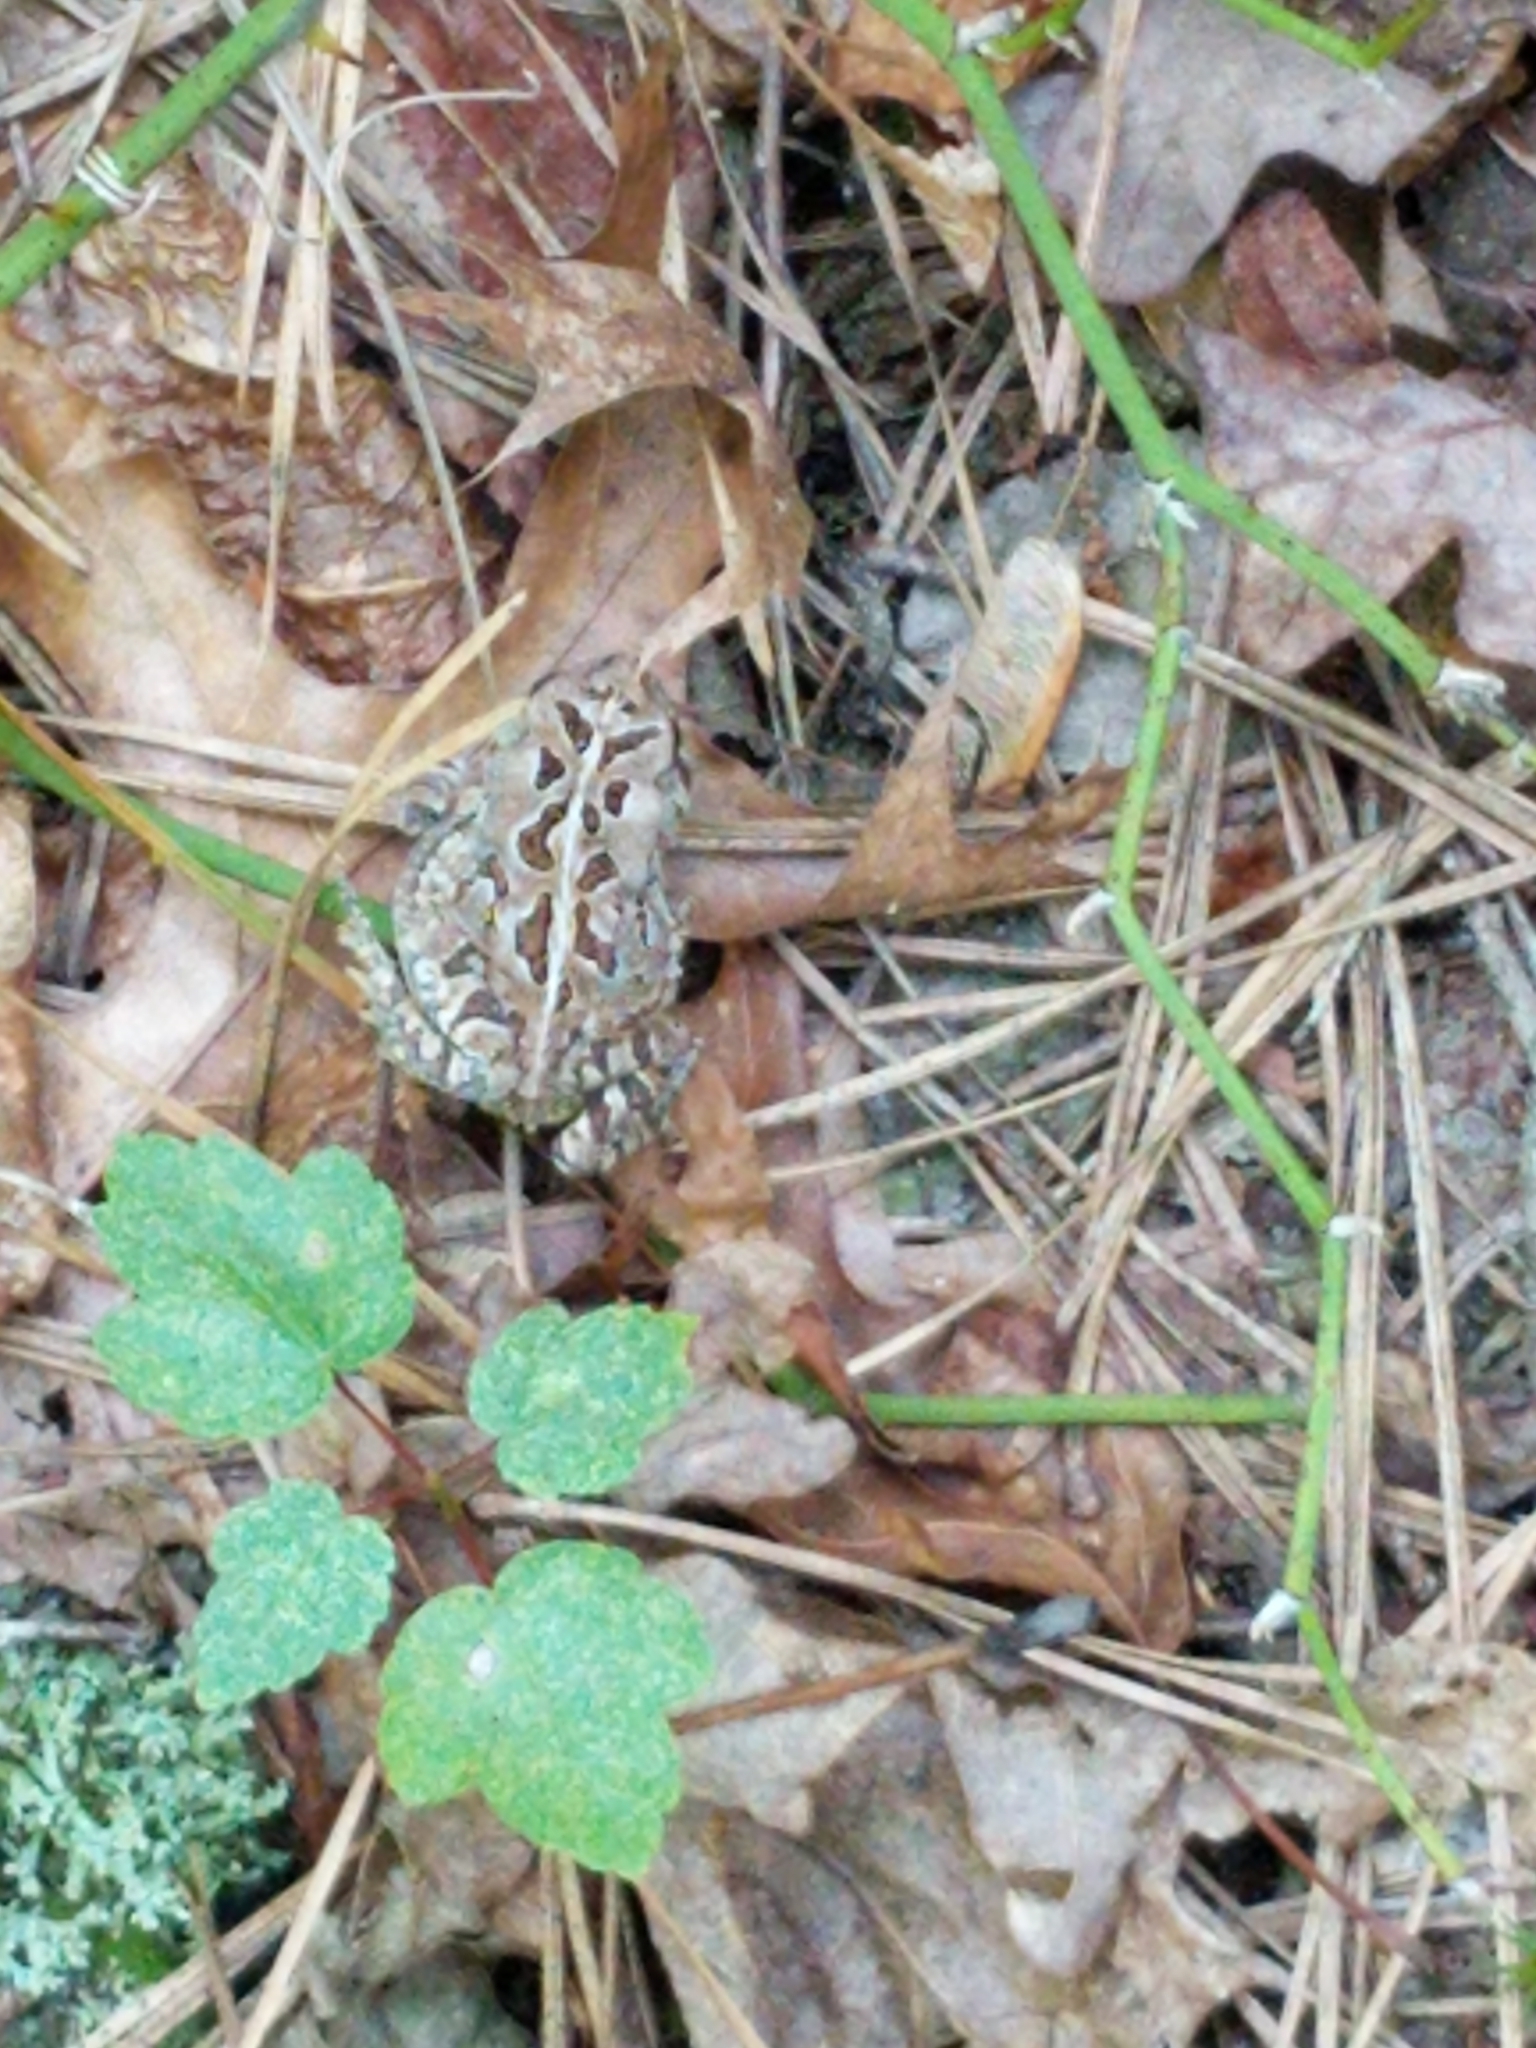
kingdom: Animalia
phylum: Chordata
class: Amphibia
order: Anura
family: Bufonidae
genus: Anaxyrus
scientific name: Anaxyrus fowleri
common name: Fowler's toad
